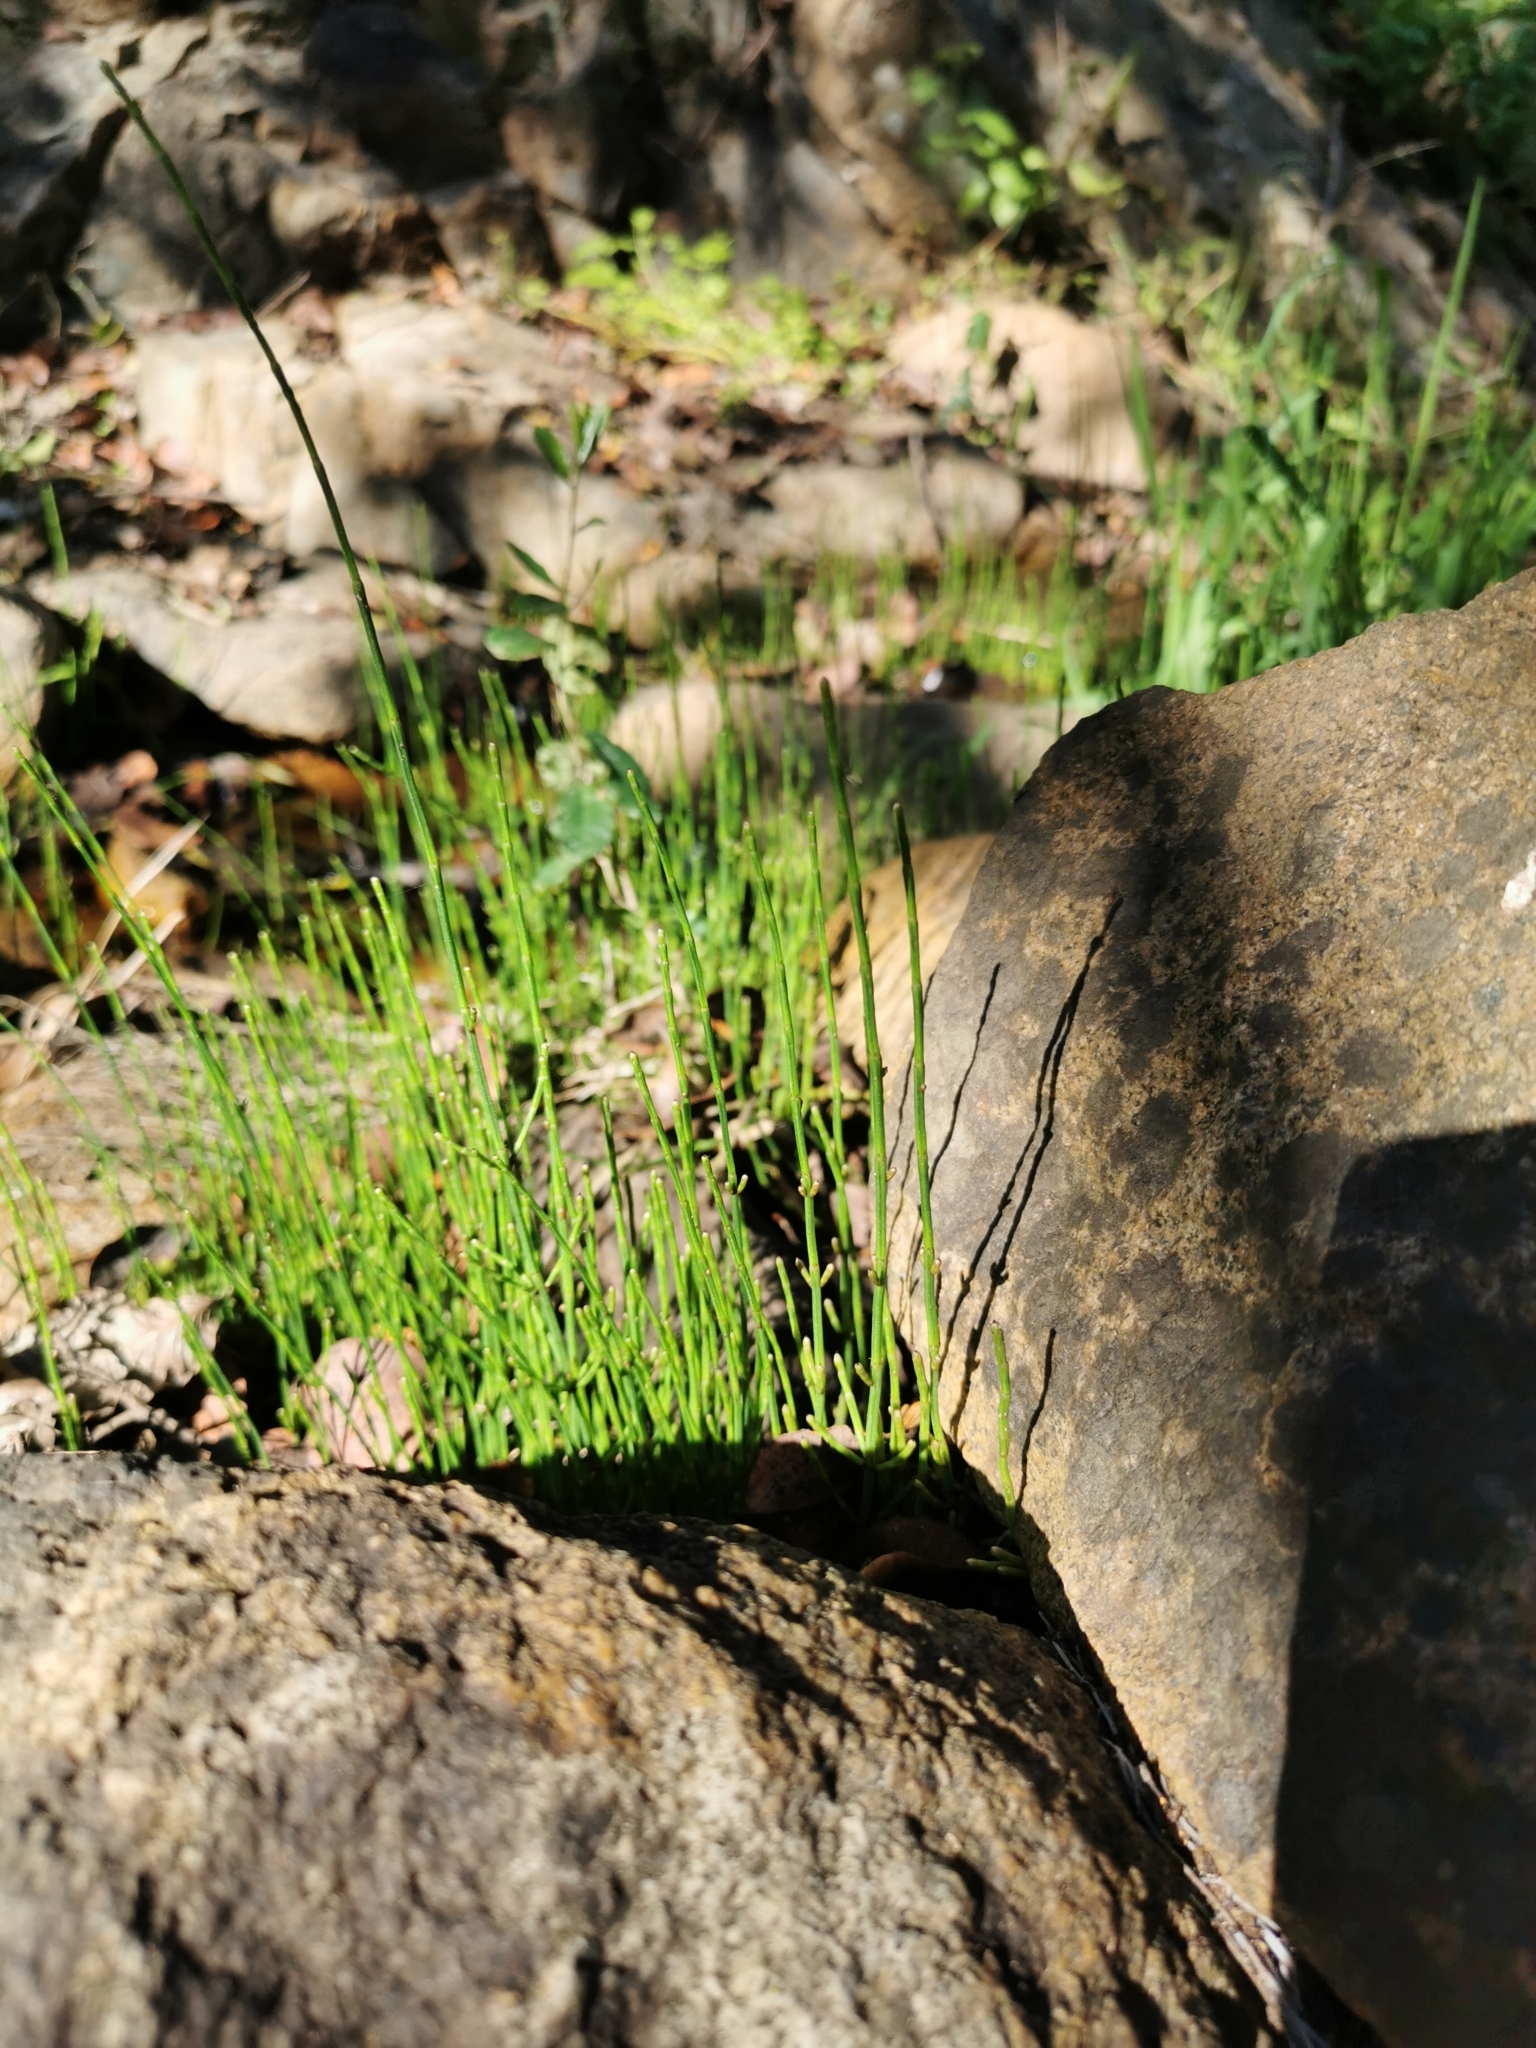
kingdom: Plantae
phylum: Tracheophyta
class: Polypodiopsida
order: Equisetales
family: Equisetaceae
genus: Equisetum
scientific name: Equisetum bogotense
